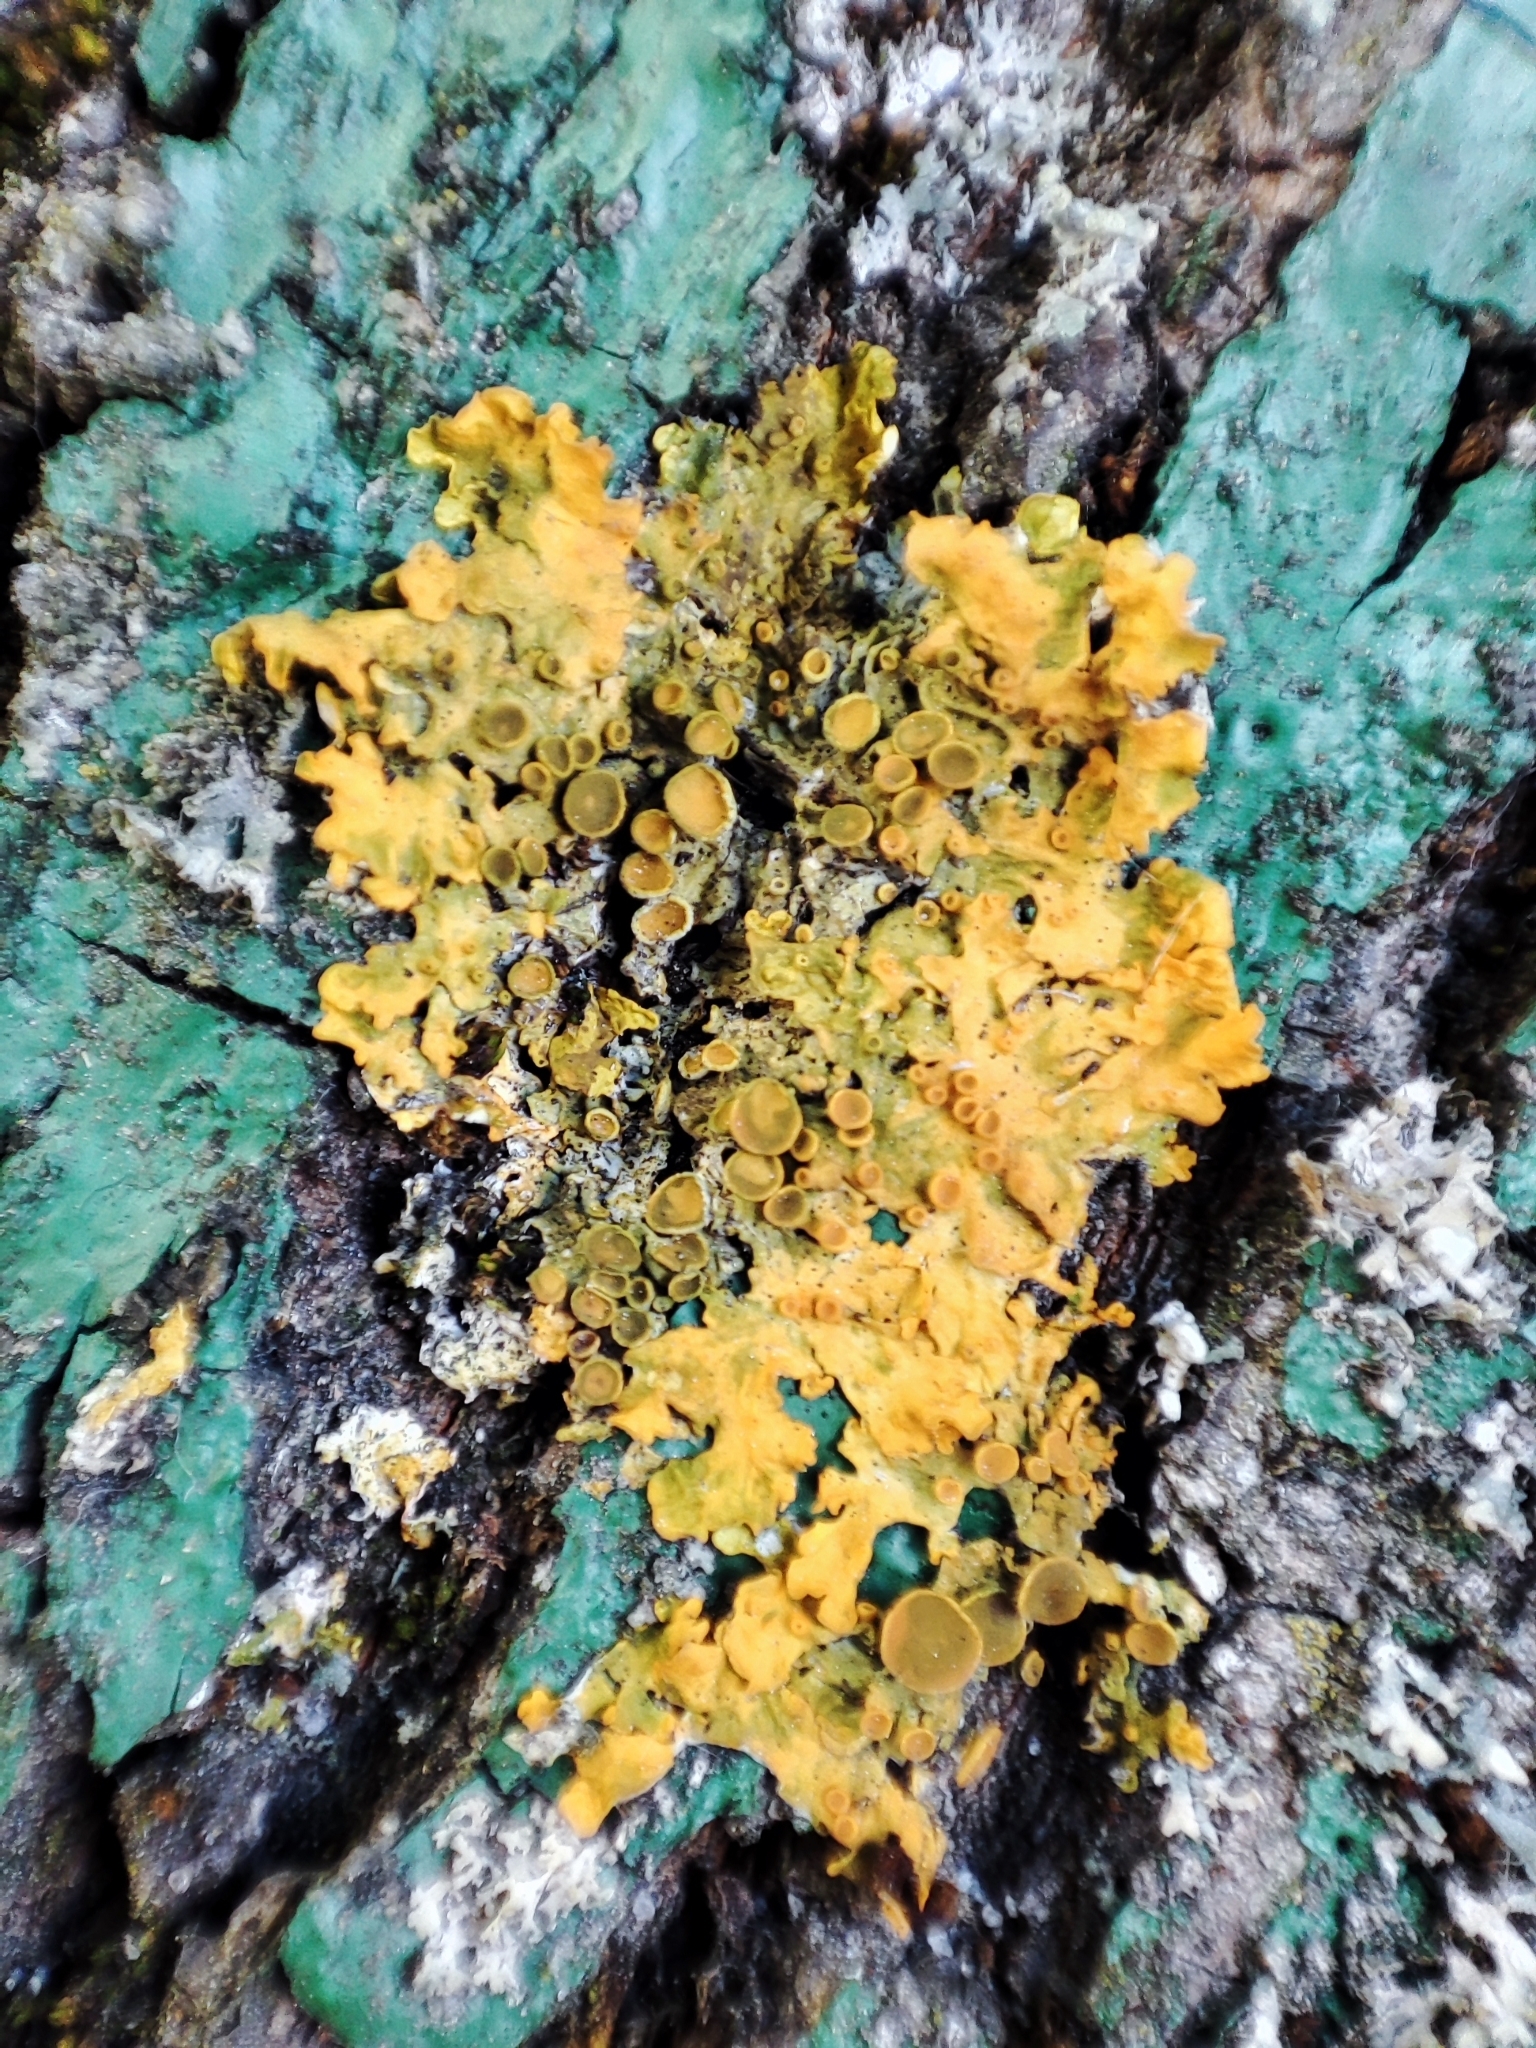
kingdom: Fungi
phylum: Ascomycota
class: Lecanoromycetes
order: Teloschistales
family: Teloschistaceae
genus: Xanthoria
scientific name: Xanthoria parietina
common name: Common orange lichen
